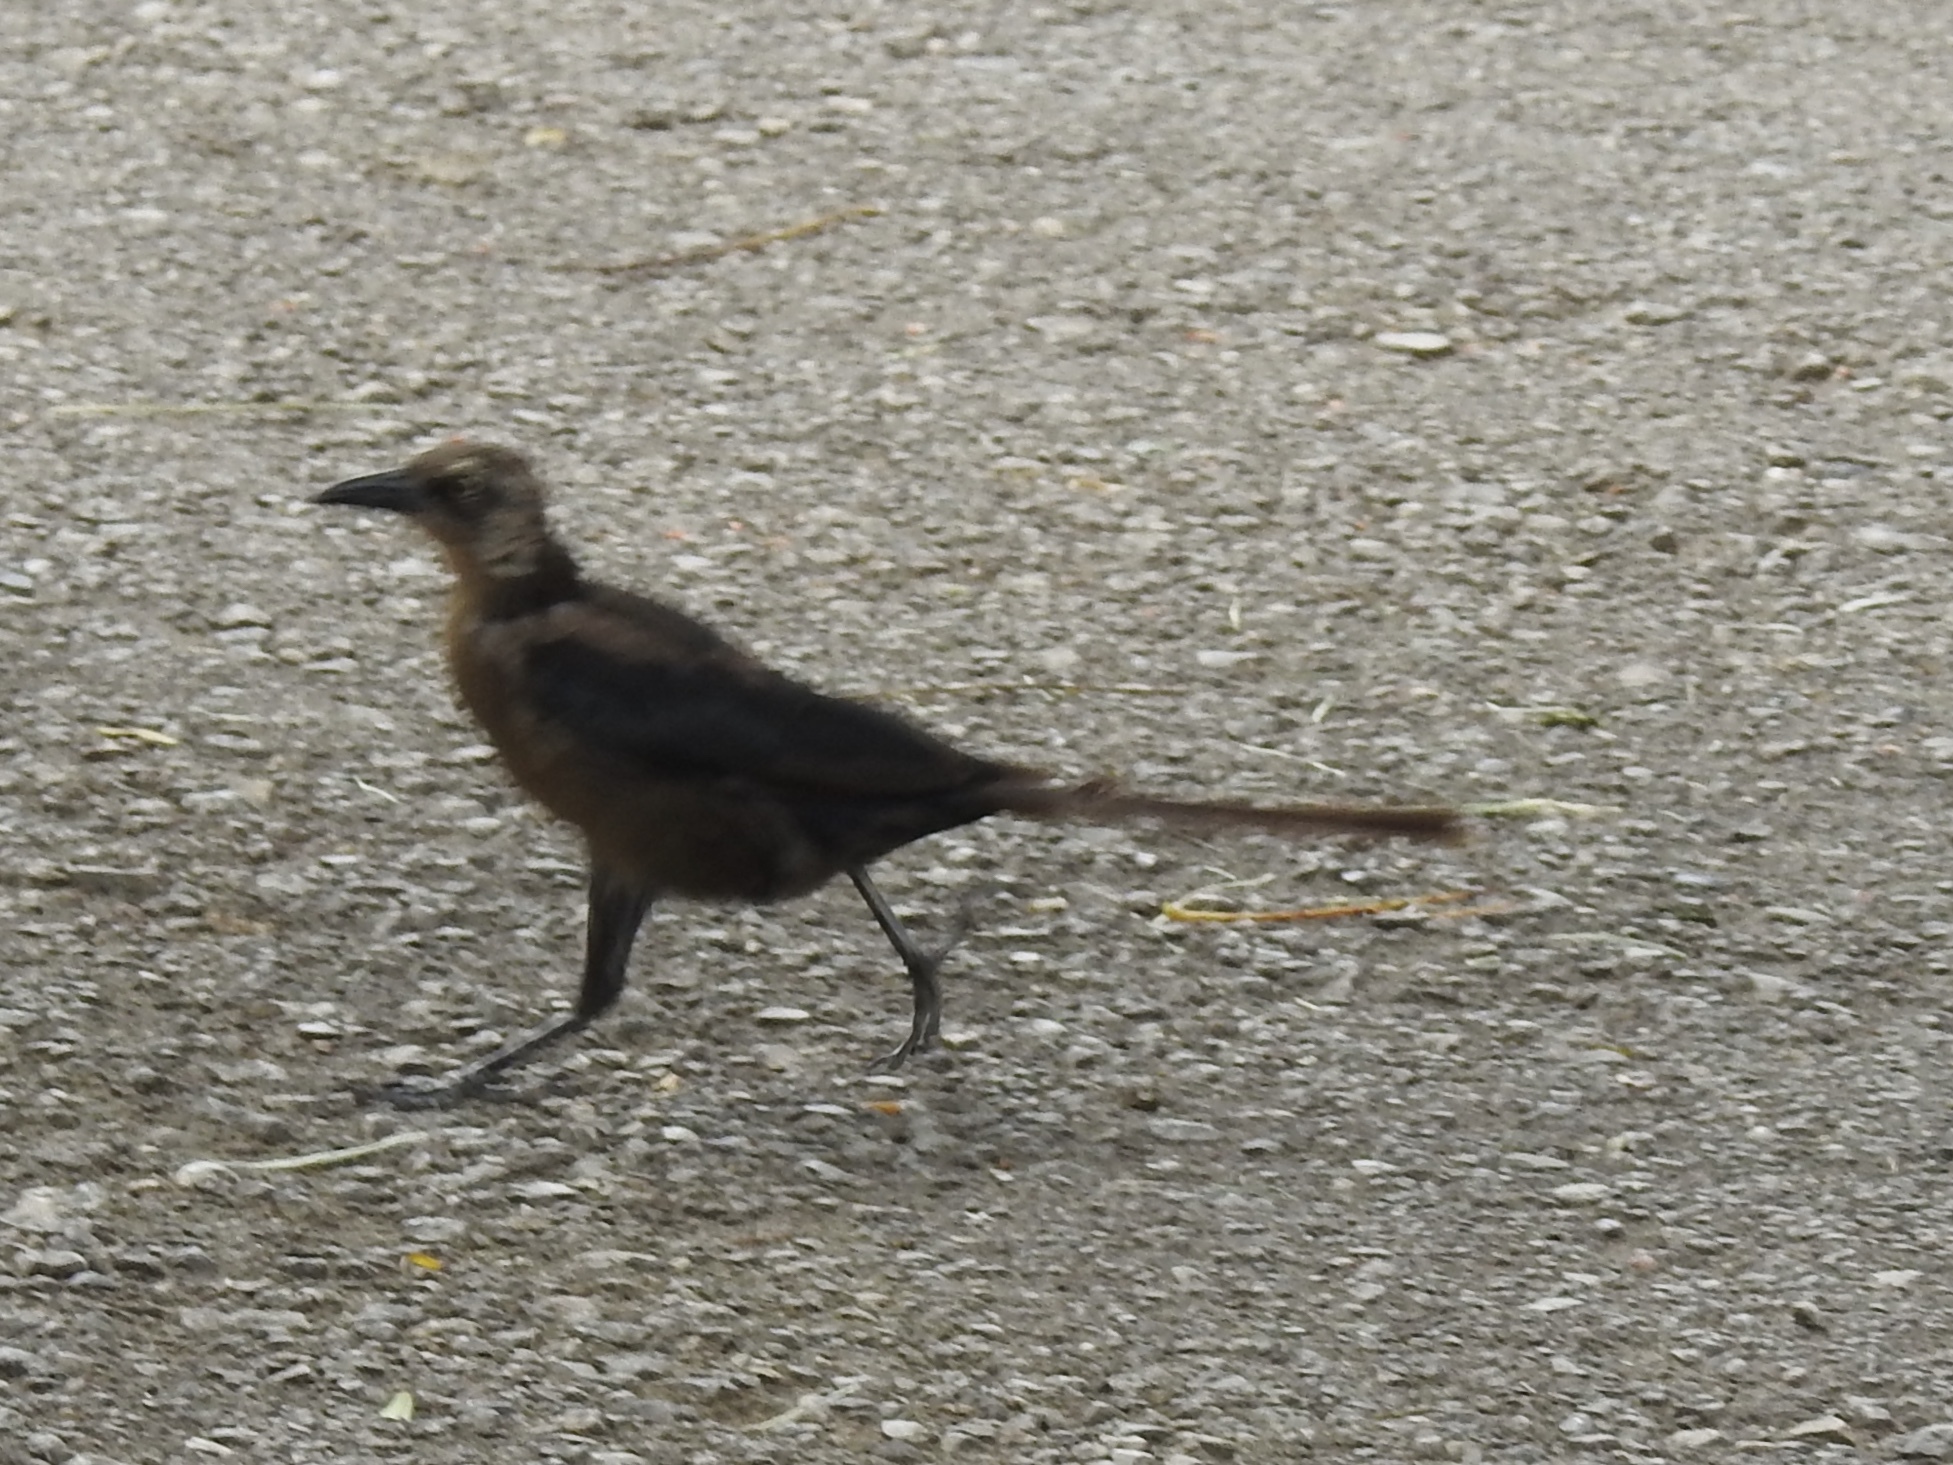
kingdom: Animalia
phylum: Chordata
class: Aves
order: Passeriformes
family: Icteridae
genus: Quiscalus
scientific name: Quiscalus mexicanus
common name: Great-tailed grackle
